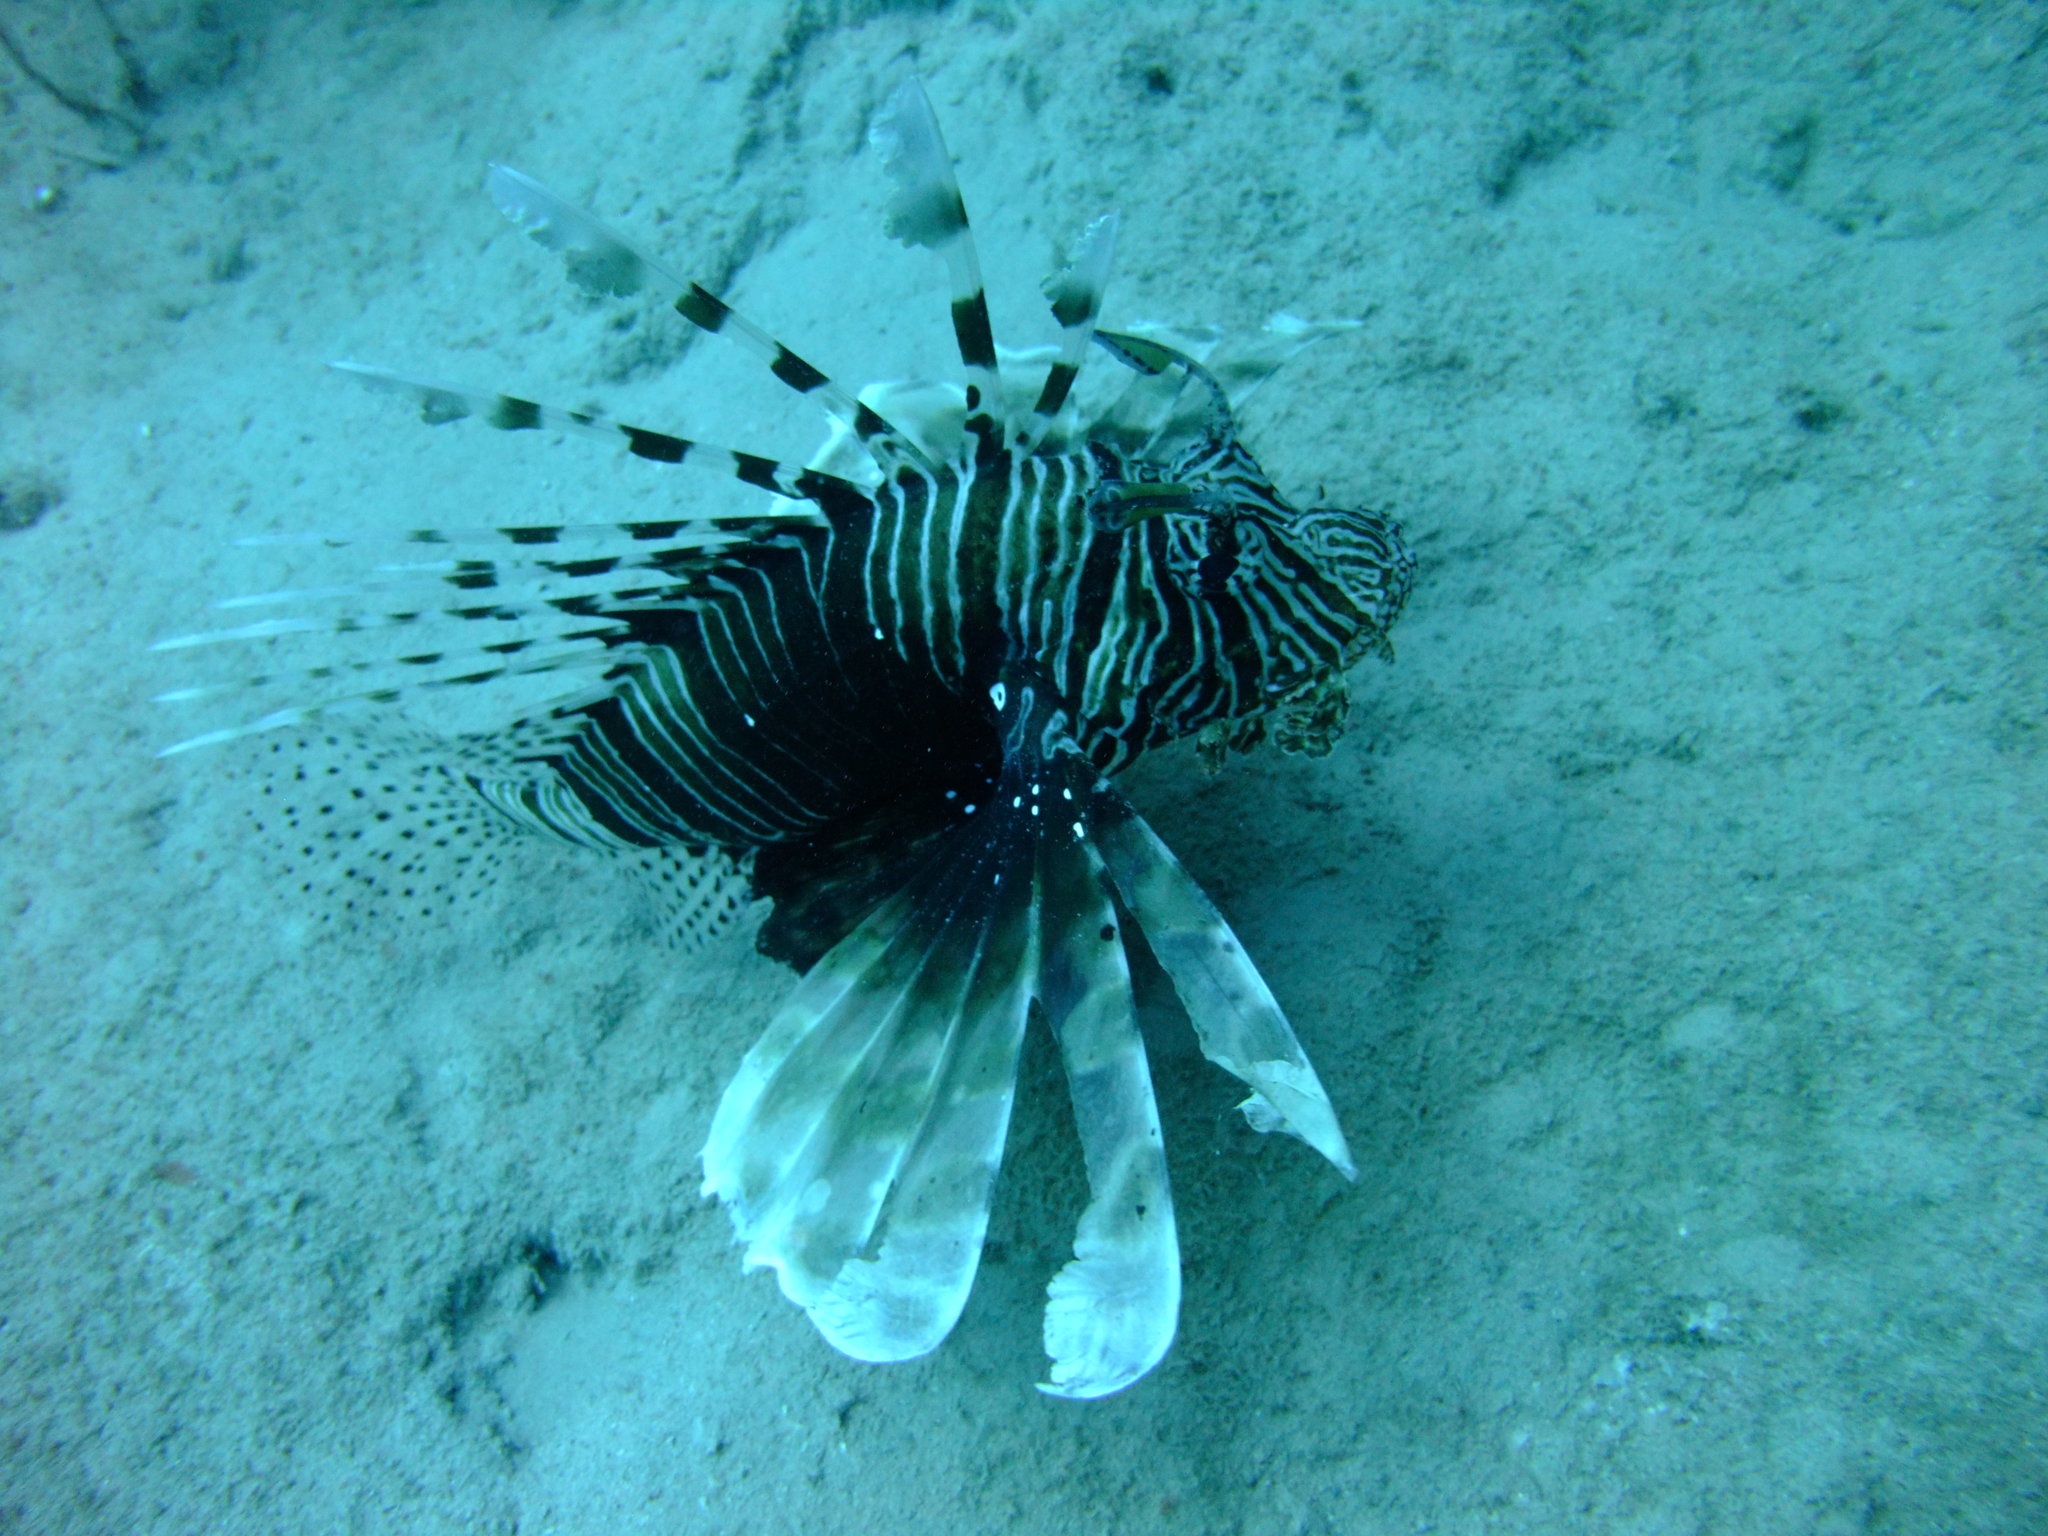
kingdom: Animalia
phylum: Chordata
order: Scorpaeniformes
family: Scorpaenidae
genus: Pterois
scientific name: Pterois miles
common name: Devil firefish
